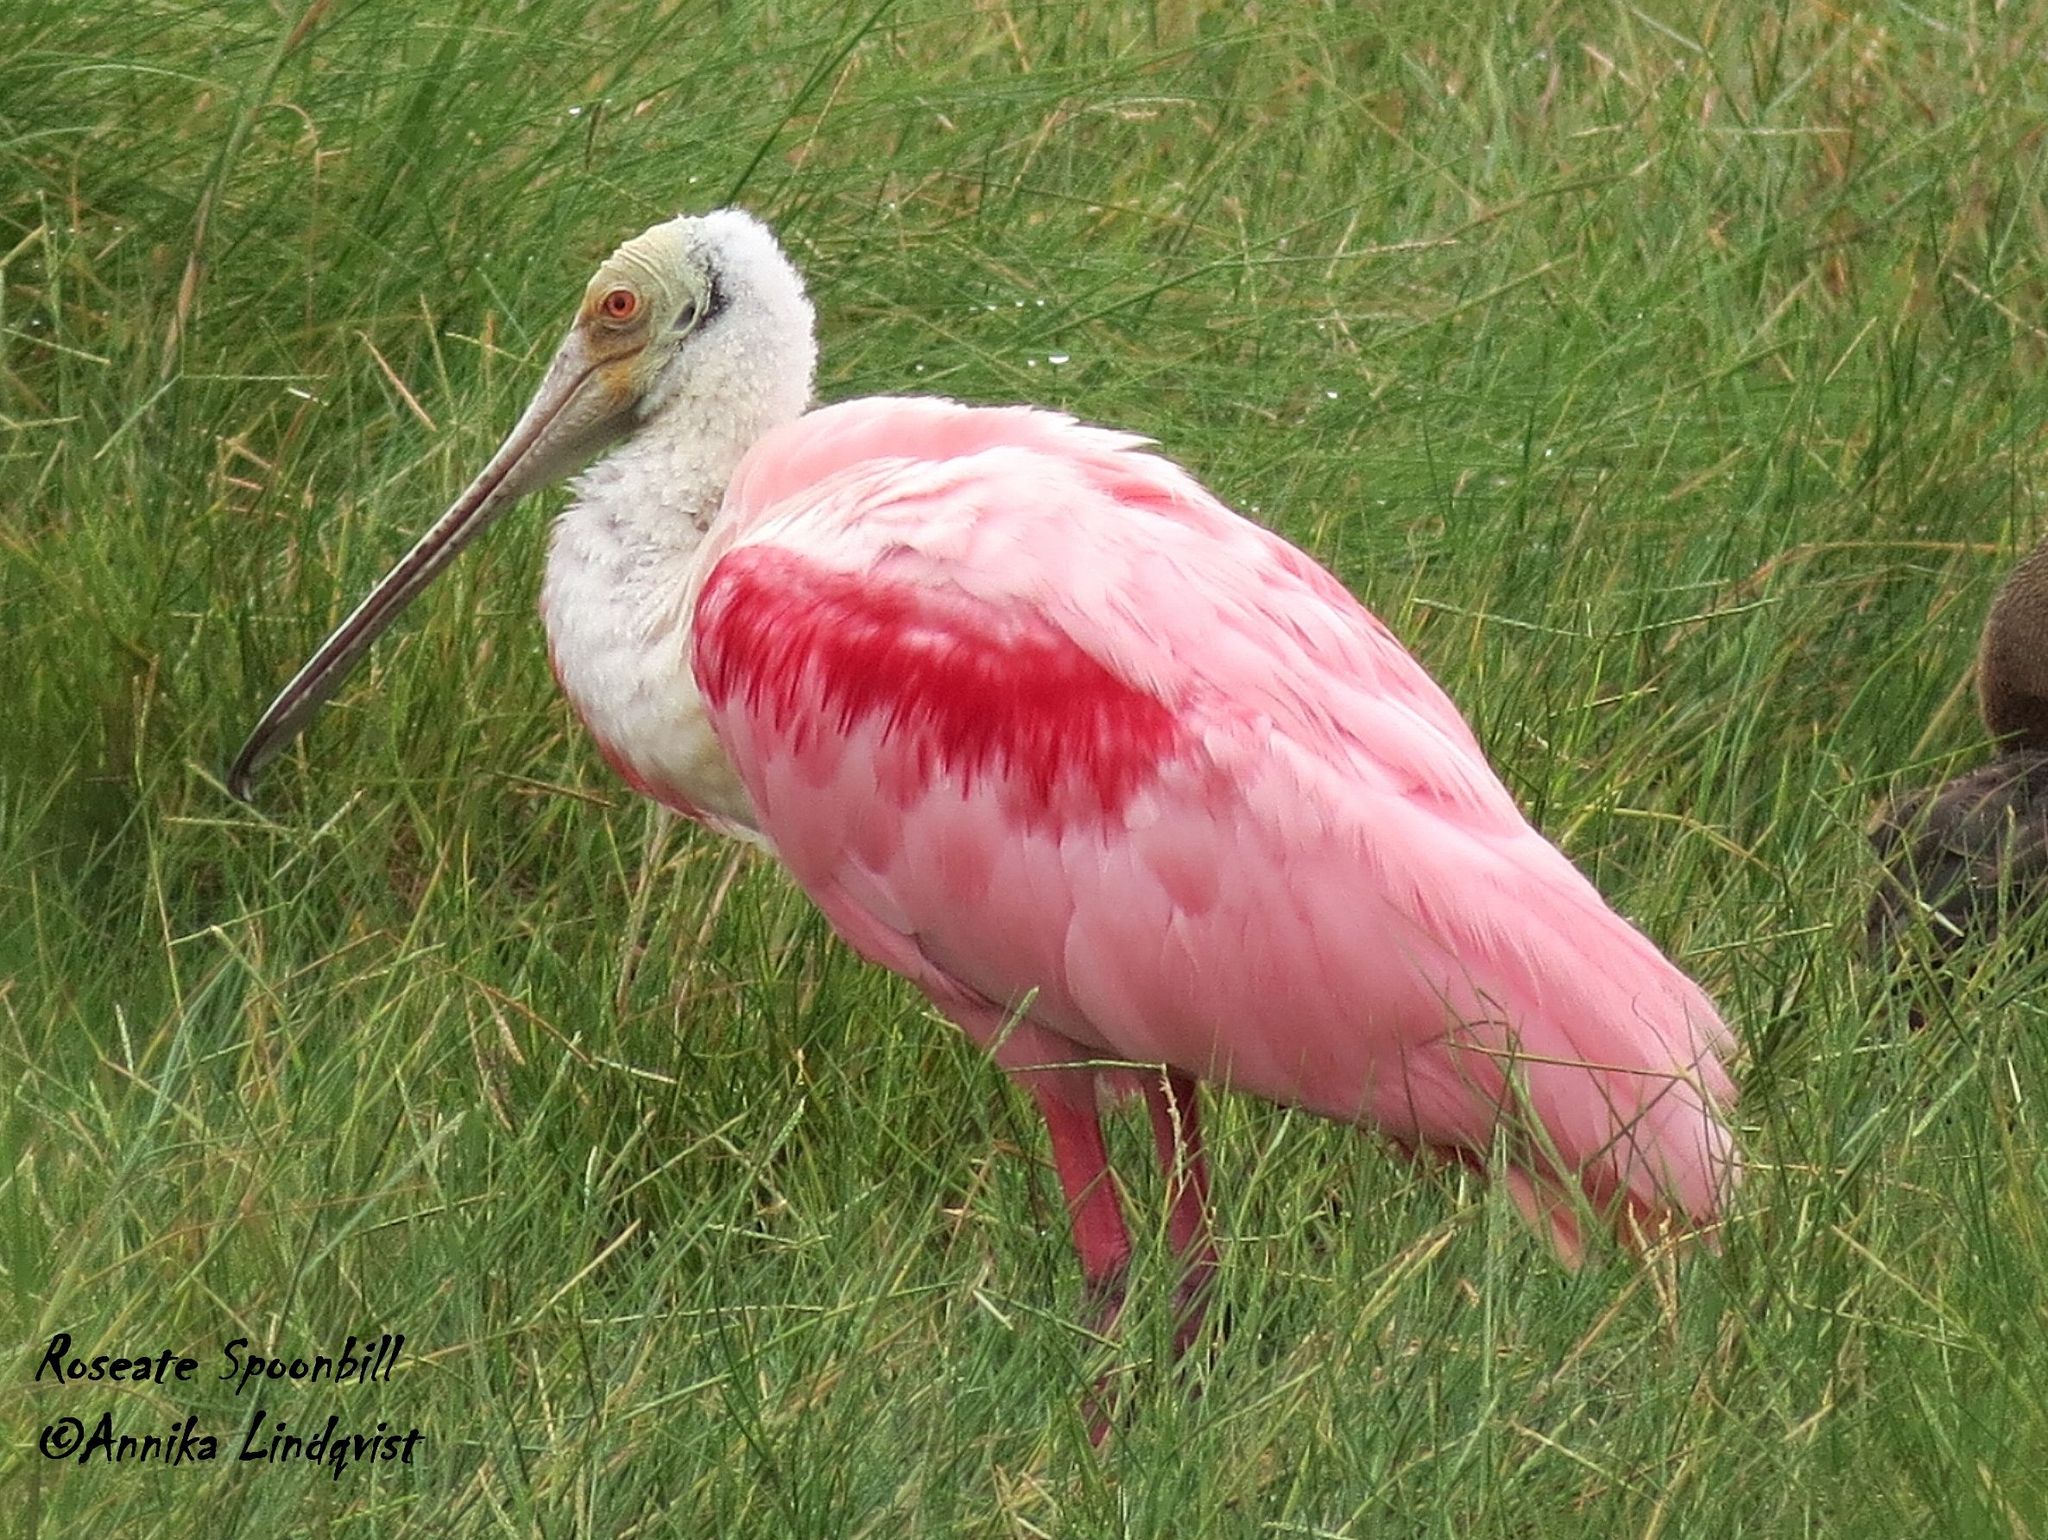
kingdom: Animalia
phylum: Chordata
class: Aves
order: Pelecaniformes
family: Threskiornithidae
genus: Platalea
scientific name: Platalea ajaja
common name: Roseate spoonbill
